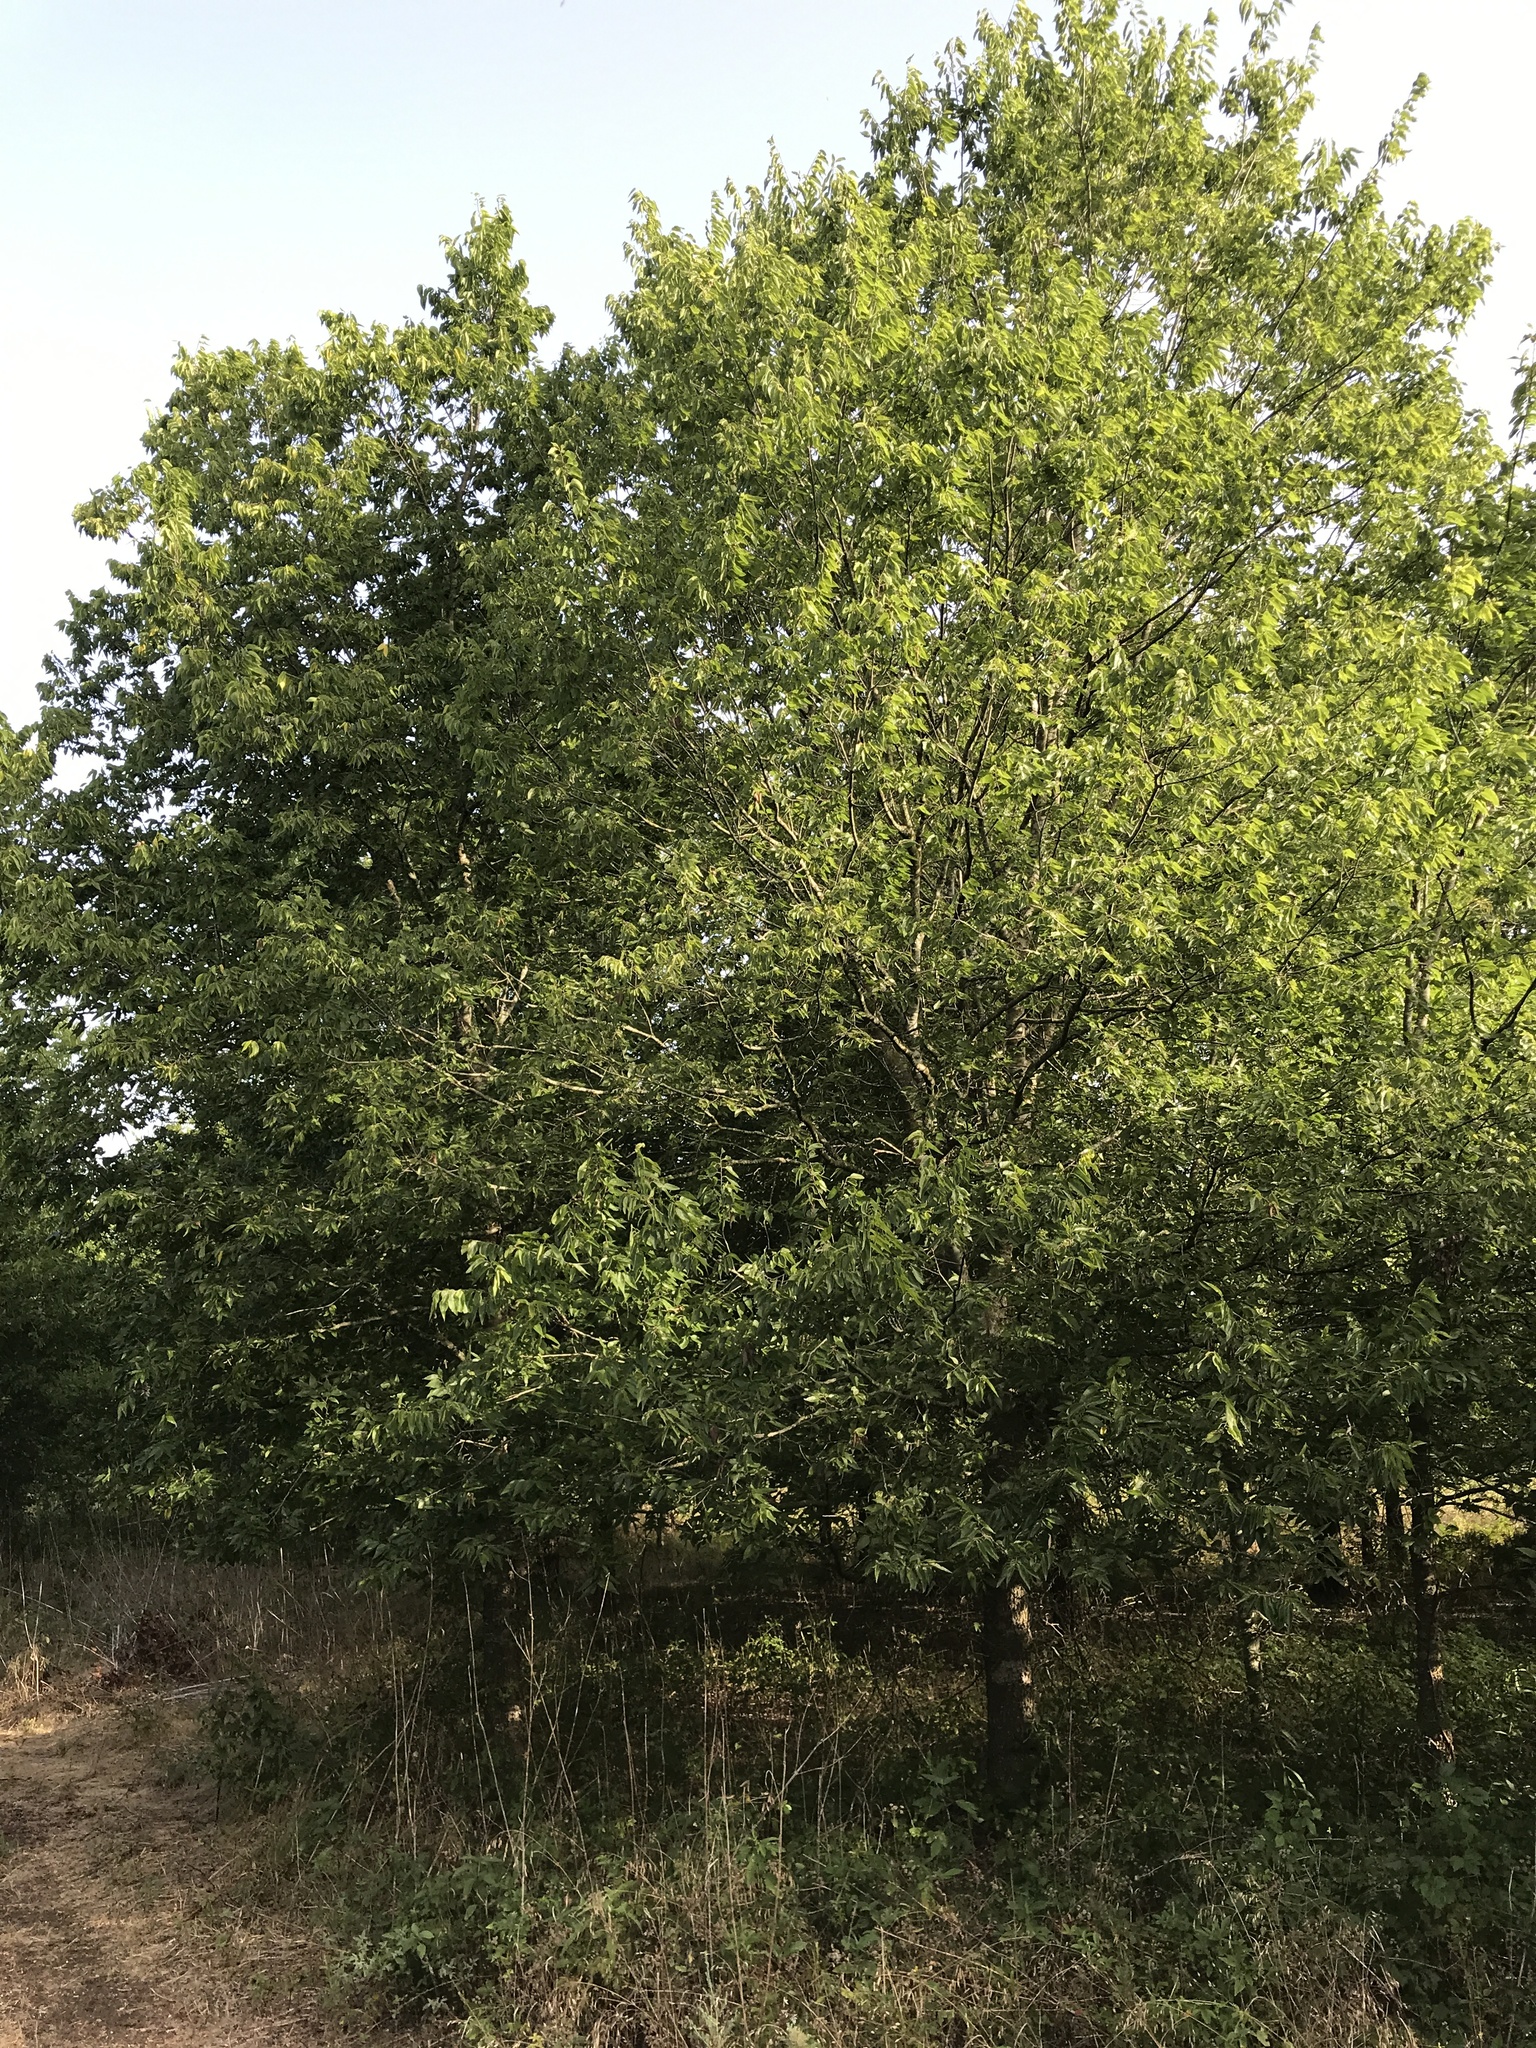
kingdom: Plantae
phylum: Tracheophyta
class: Magnoliopsida
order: Rosales
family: Cannabaceae
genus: Celtis
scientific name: Celtis laevigata
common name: Sugarberry
